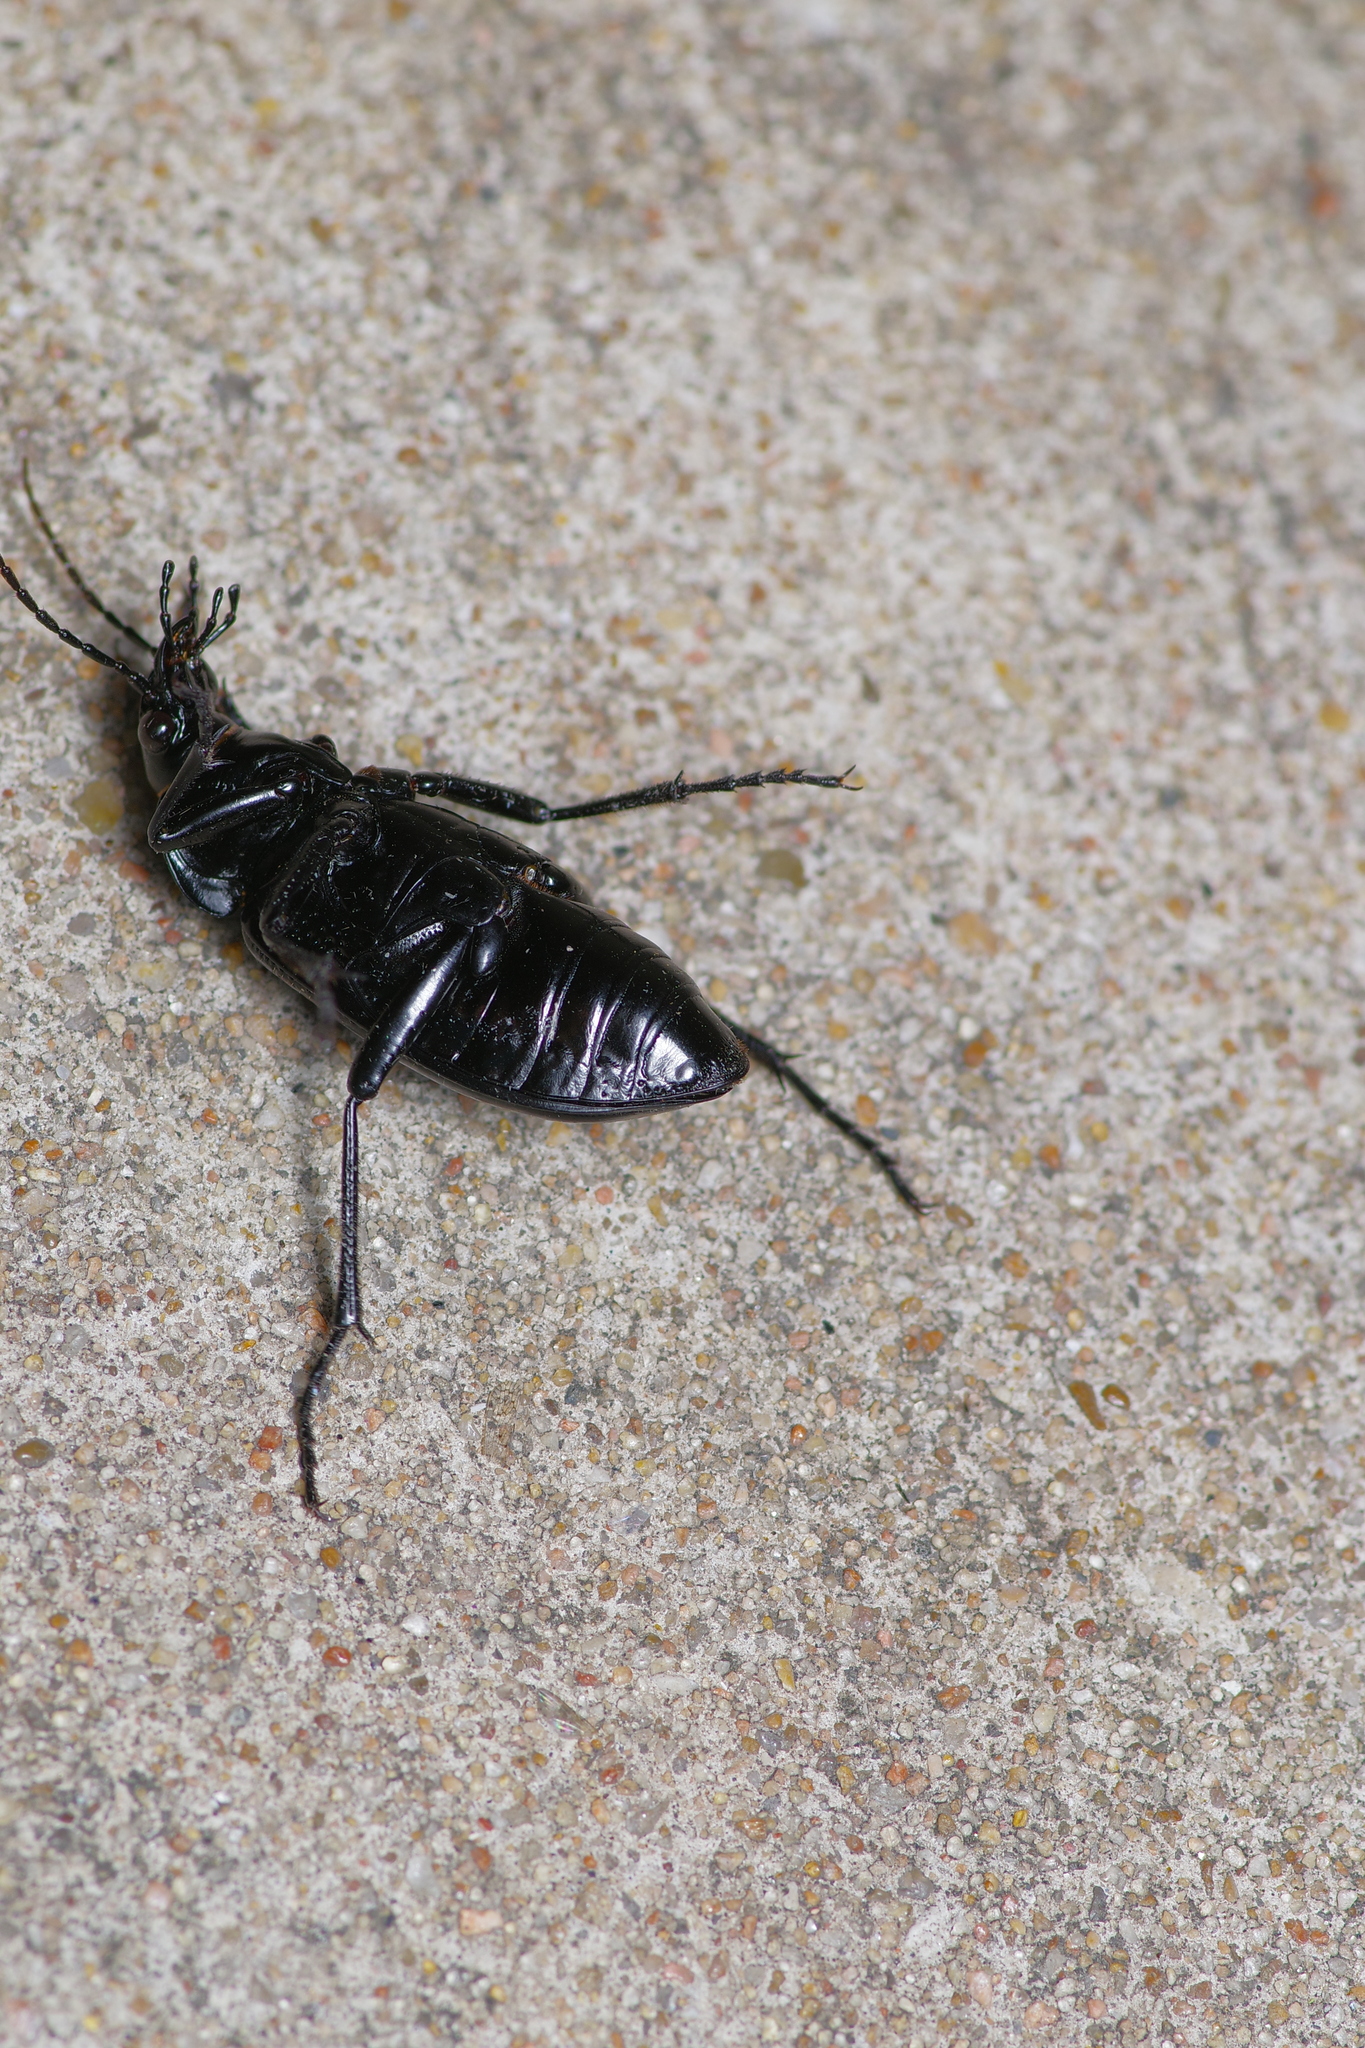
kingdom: Animalia
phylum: Arthropoda
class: Insecta
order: Coleoptera
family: Carabidae
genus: Calosoma
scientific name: Calosoma macrum
